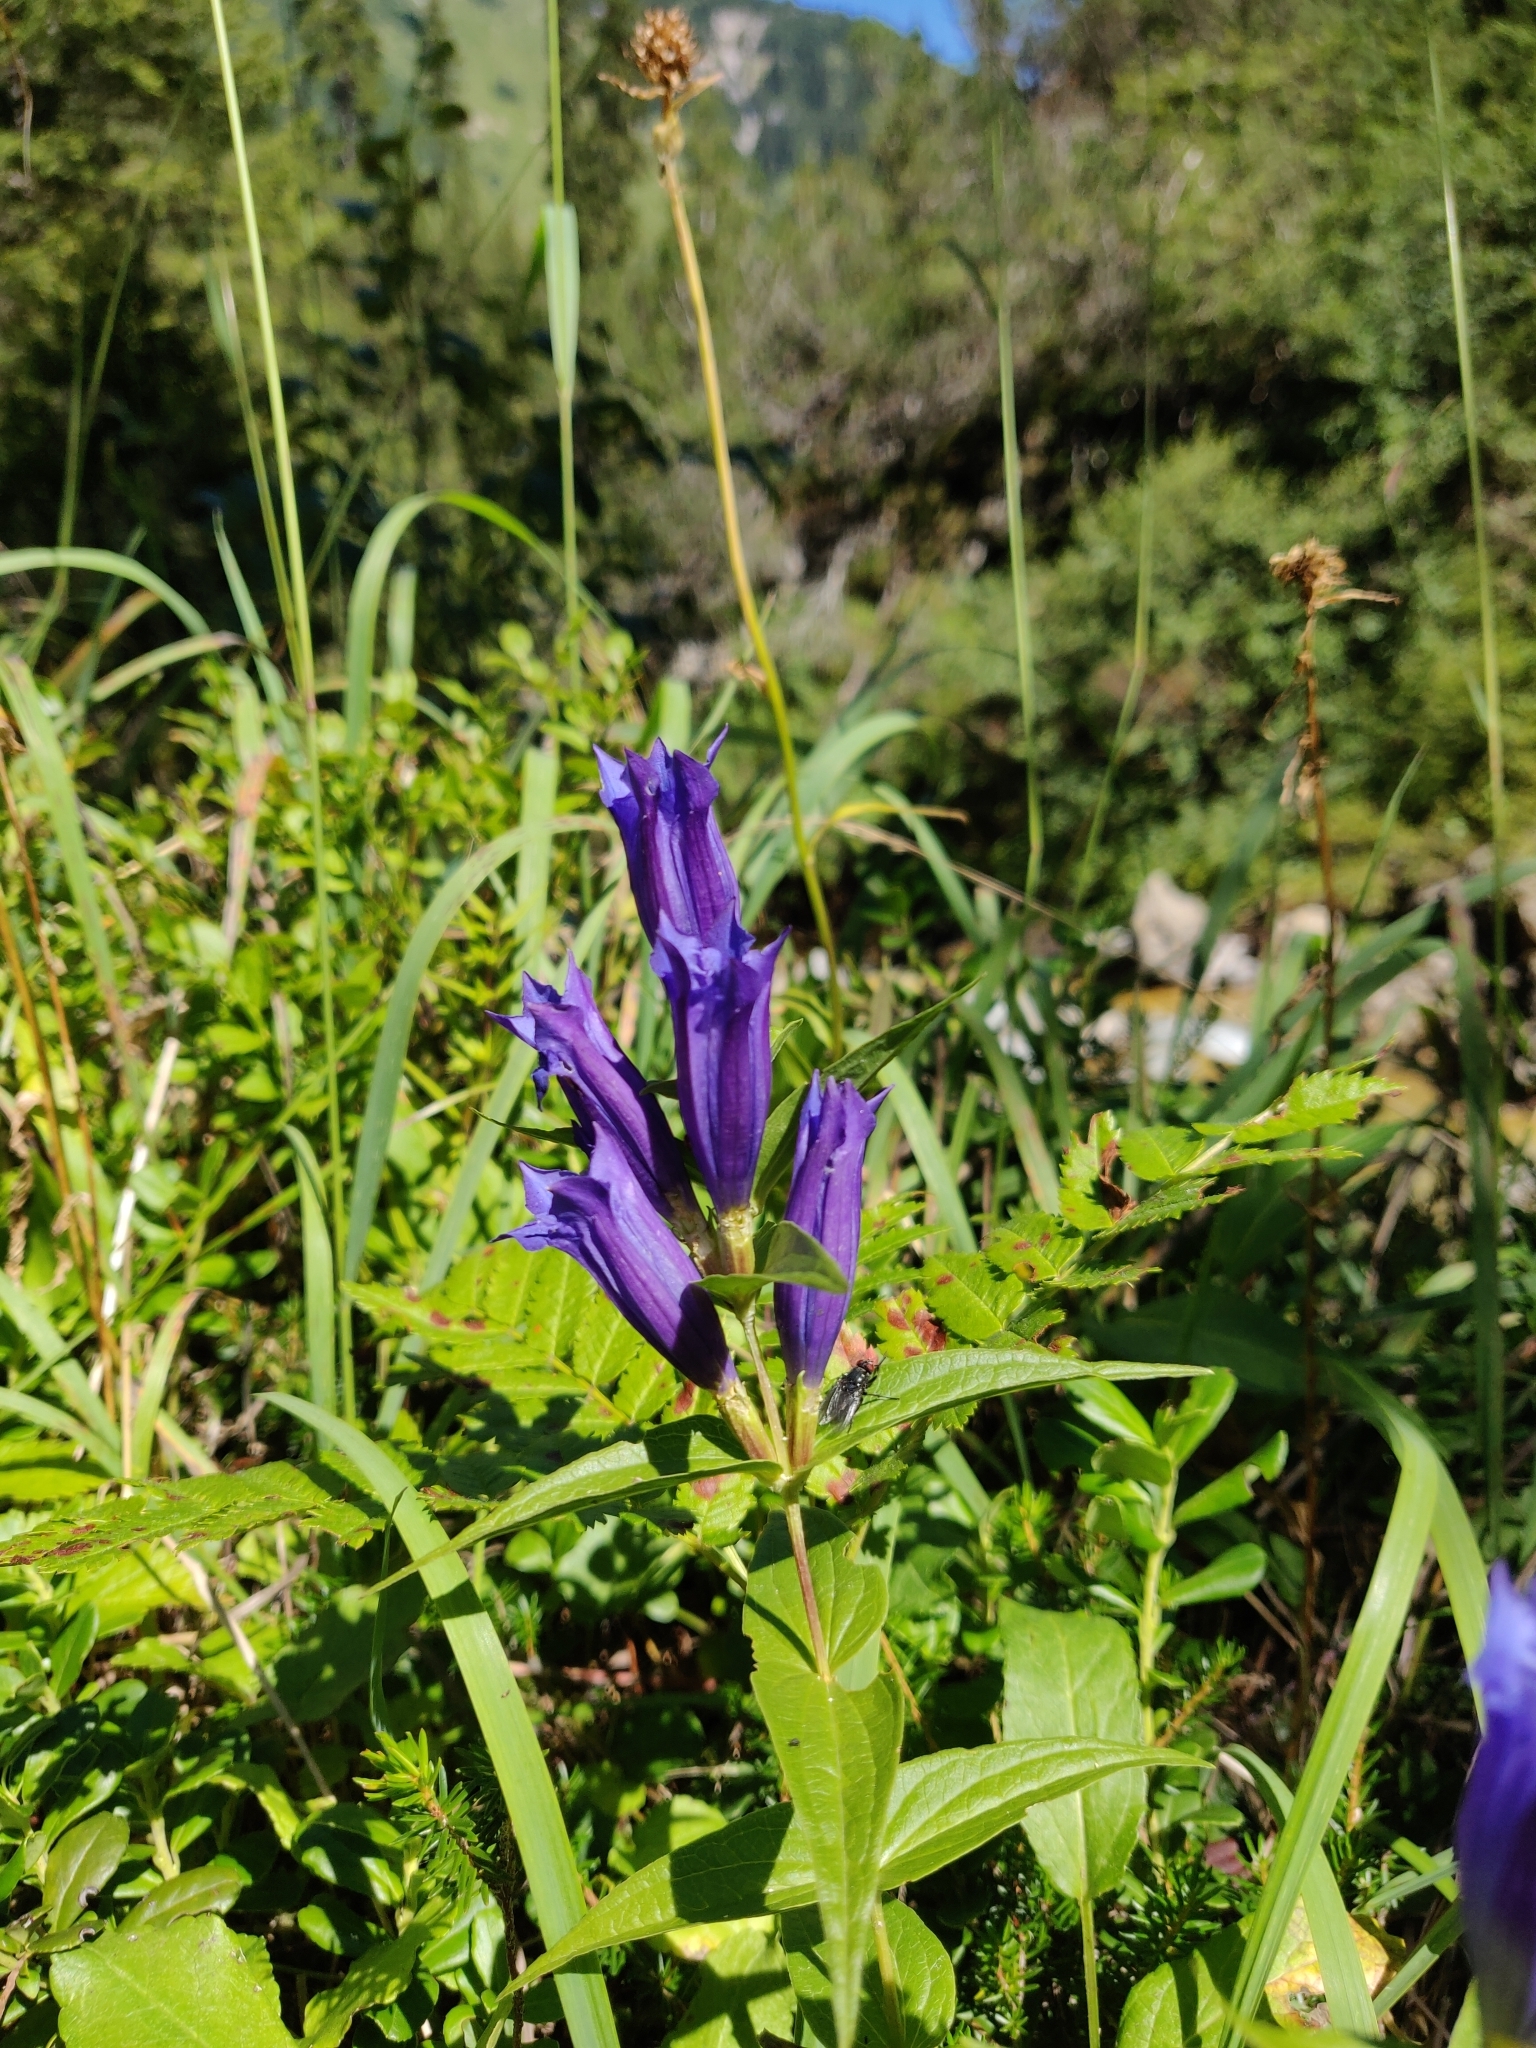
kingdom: Plantae
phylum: Tracheophyta
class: Magnoliopsida
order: Gentianales
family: Gentianaceae
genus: Gentiana
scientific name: Gentiana asclepiadea
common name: Willow gentian
